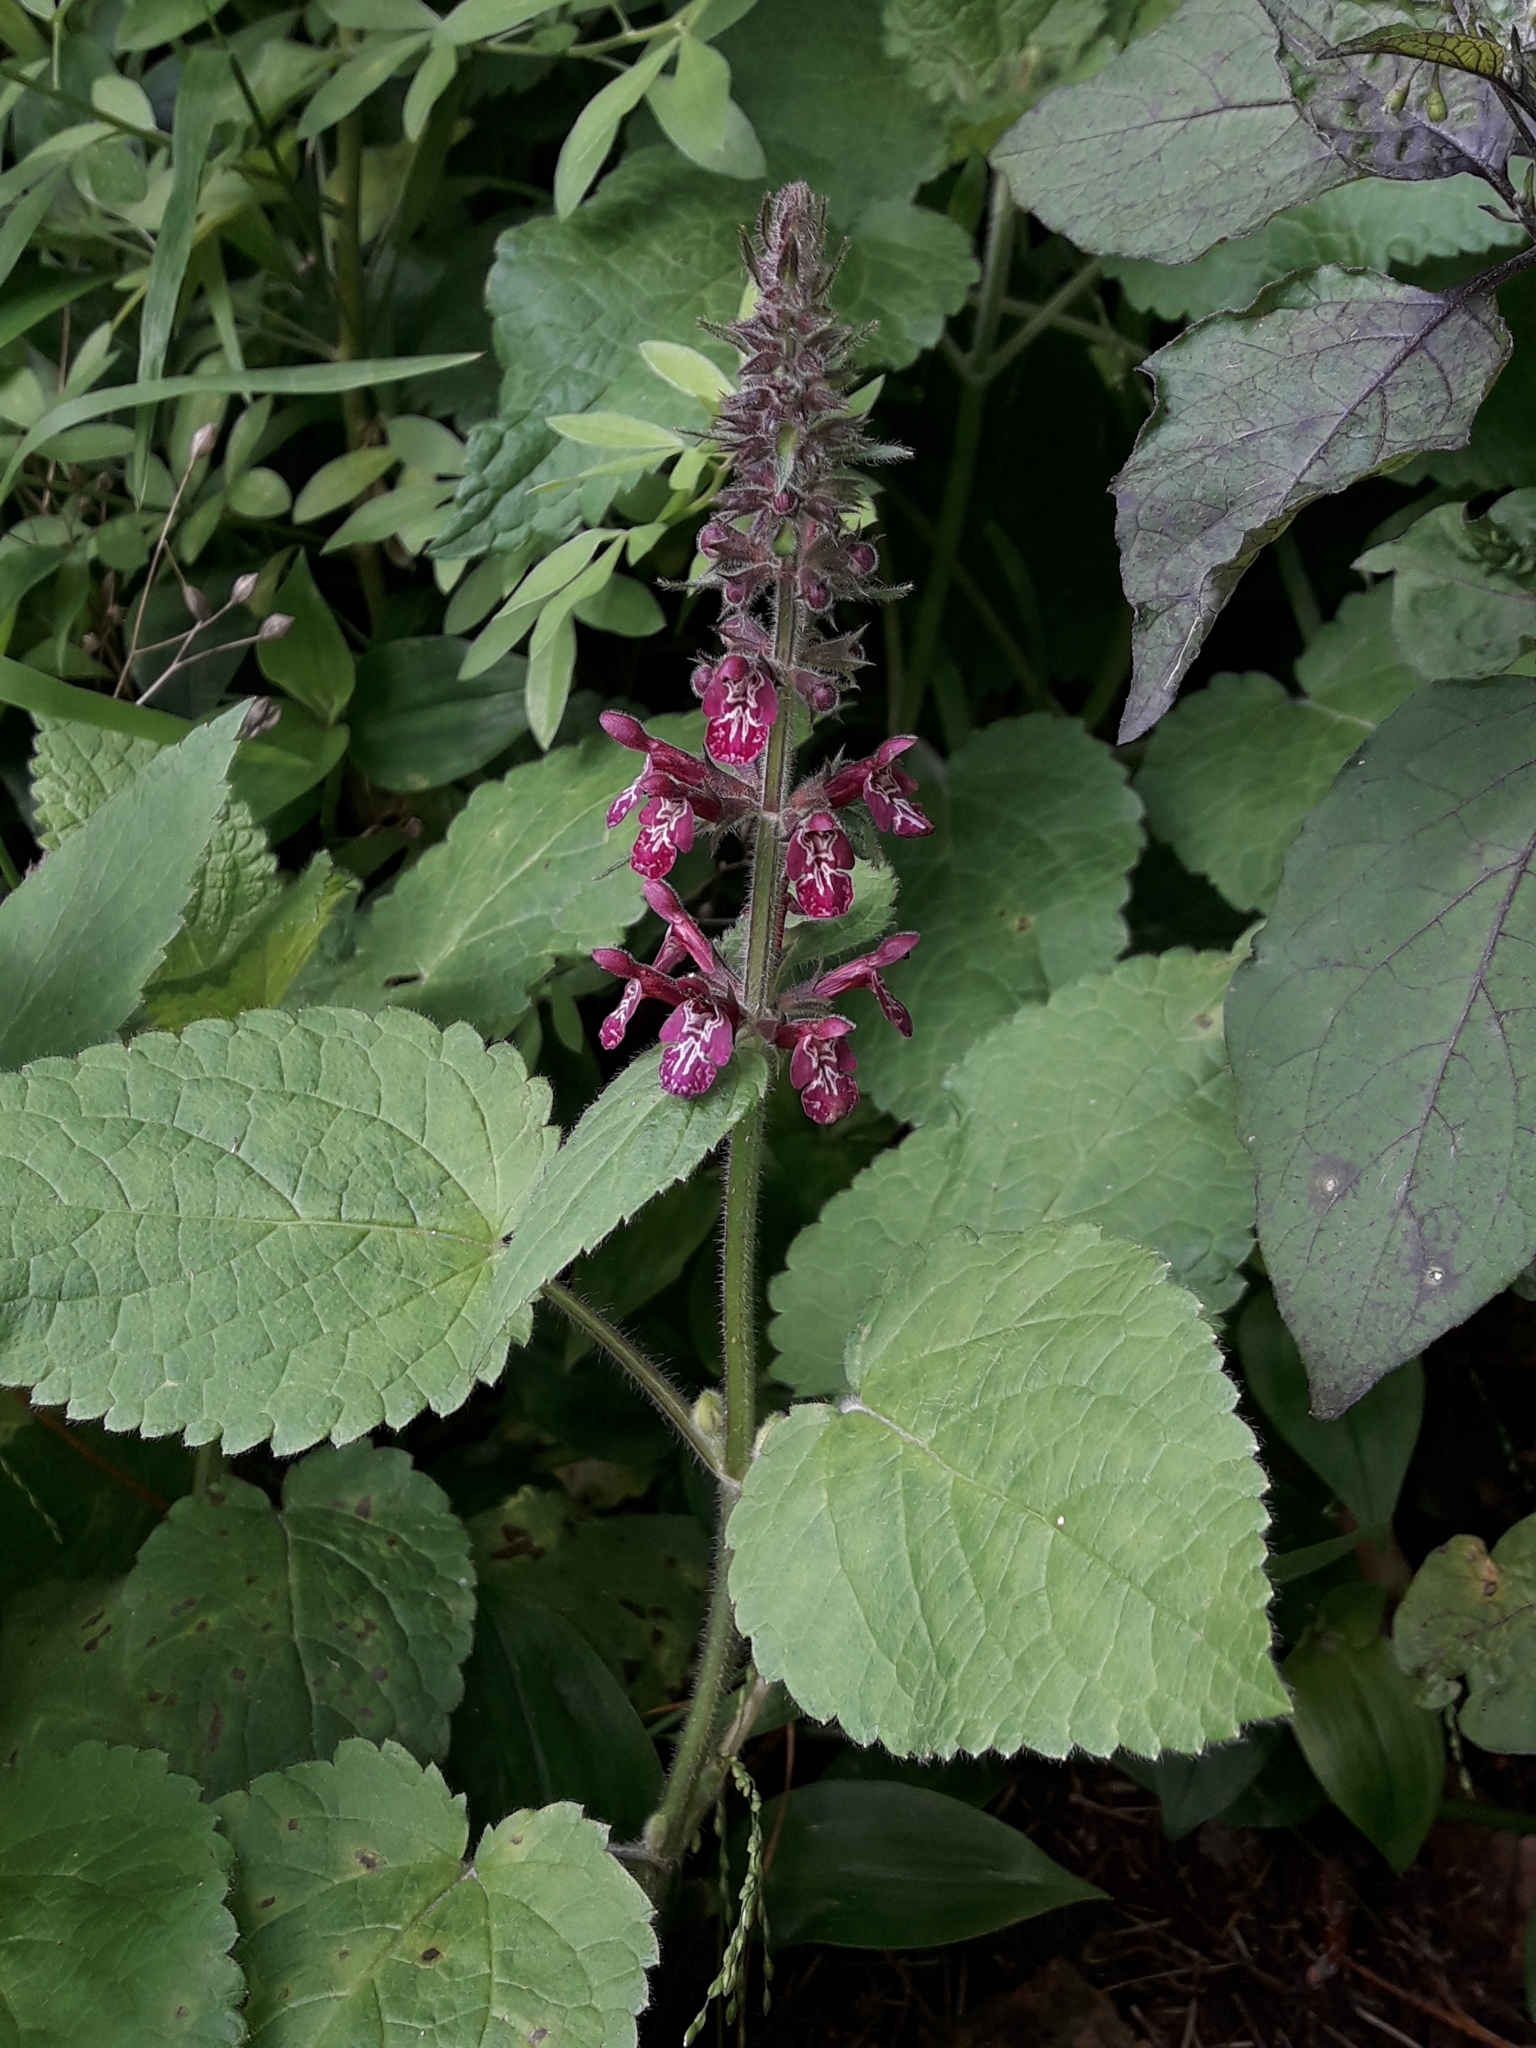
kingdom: Plantae
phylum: Tracheophyta
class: Magnoliopsida
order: Lamiales
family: Lamiaceae
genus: Stachys
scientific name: Stachys sylvatica
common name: Hedge woundwort
